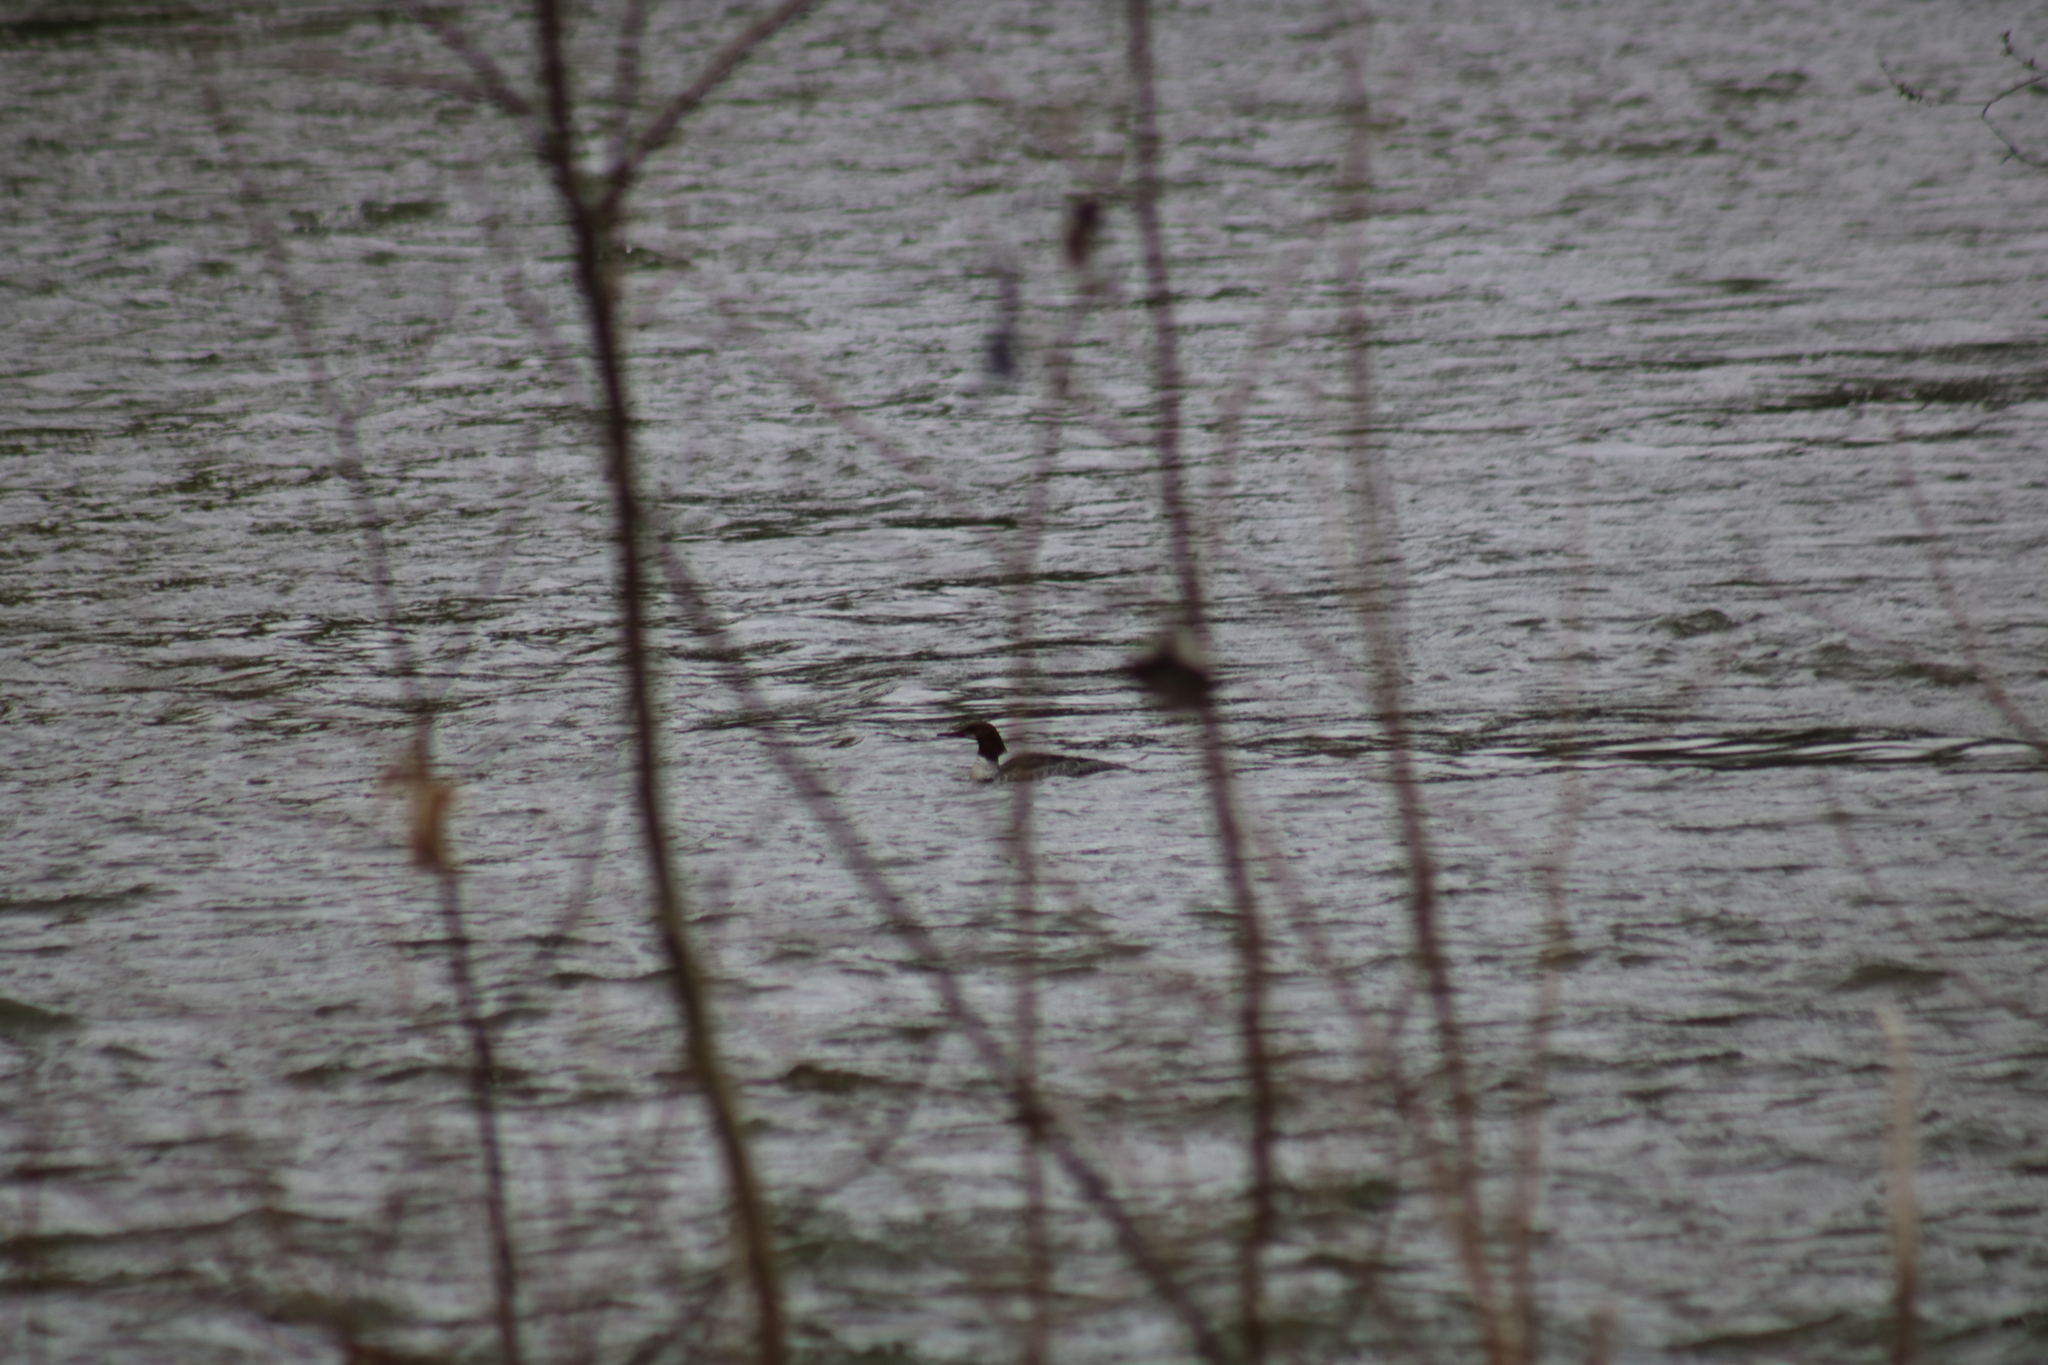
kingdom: Animalia
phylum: Chordata
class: Aves
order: Anseriformes
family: Anatidae
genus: Mergus
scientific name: Mergus merganser
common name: Common merganser
